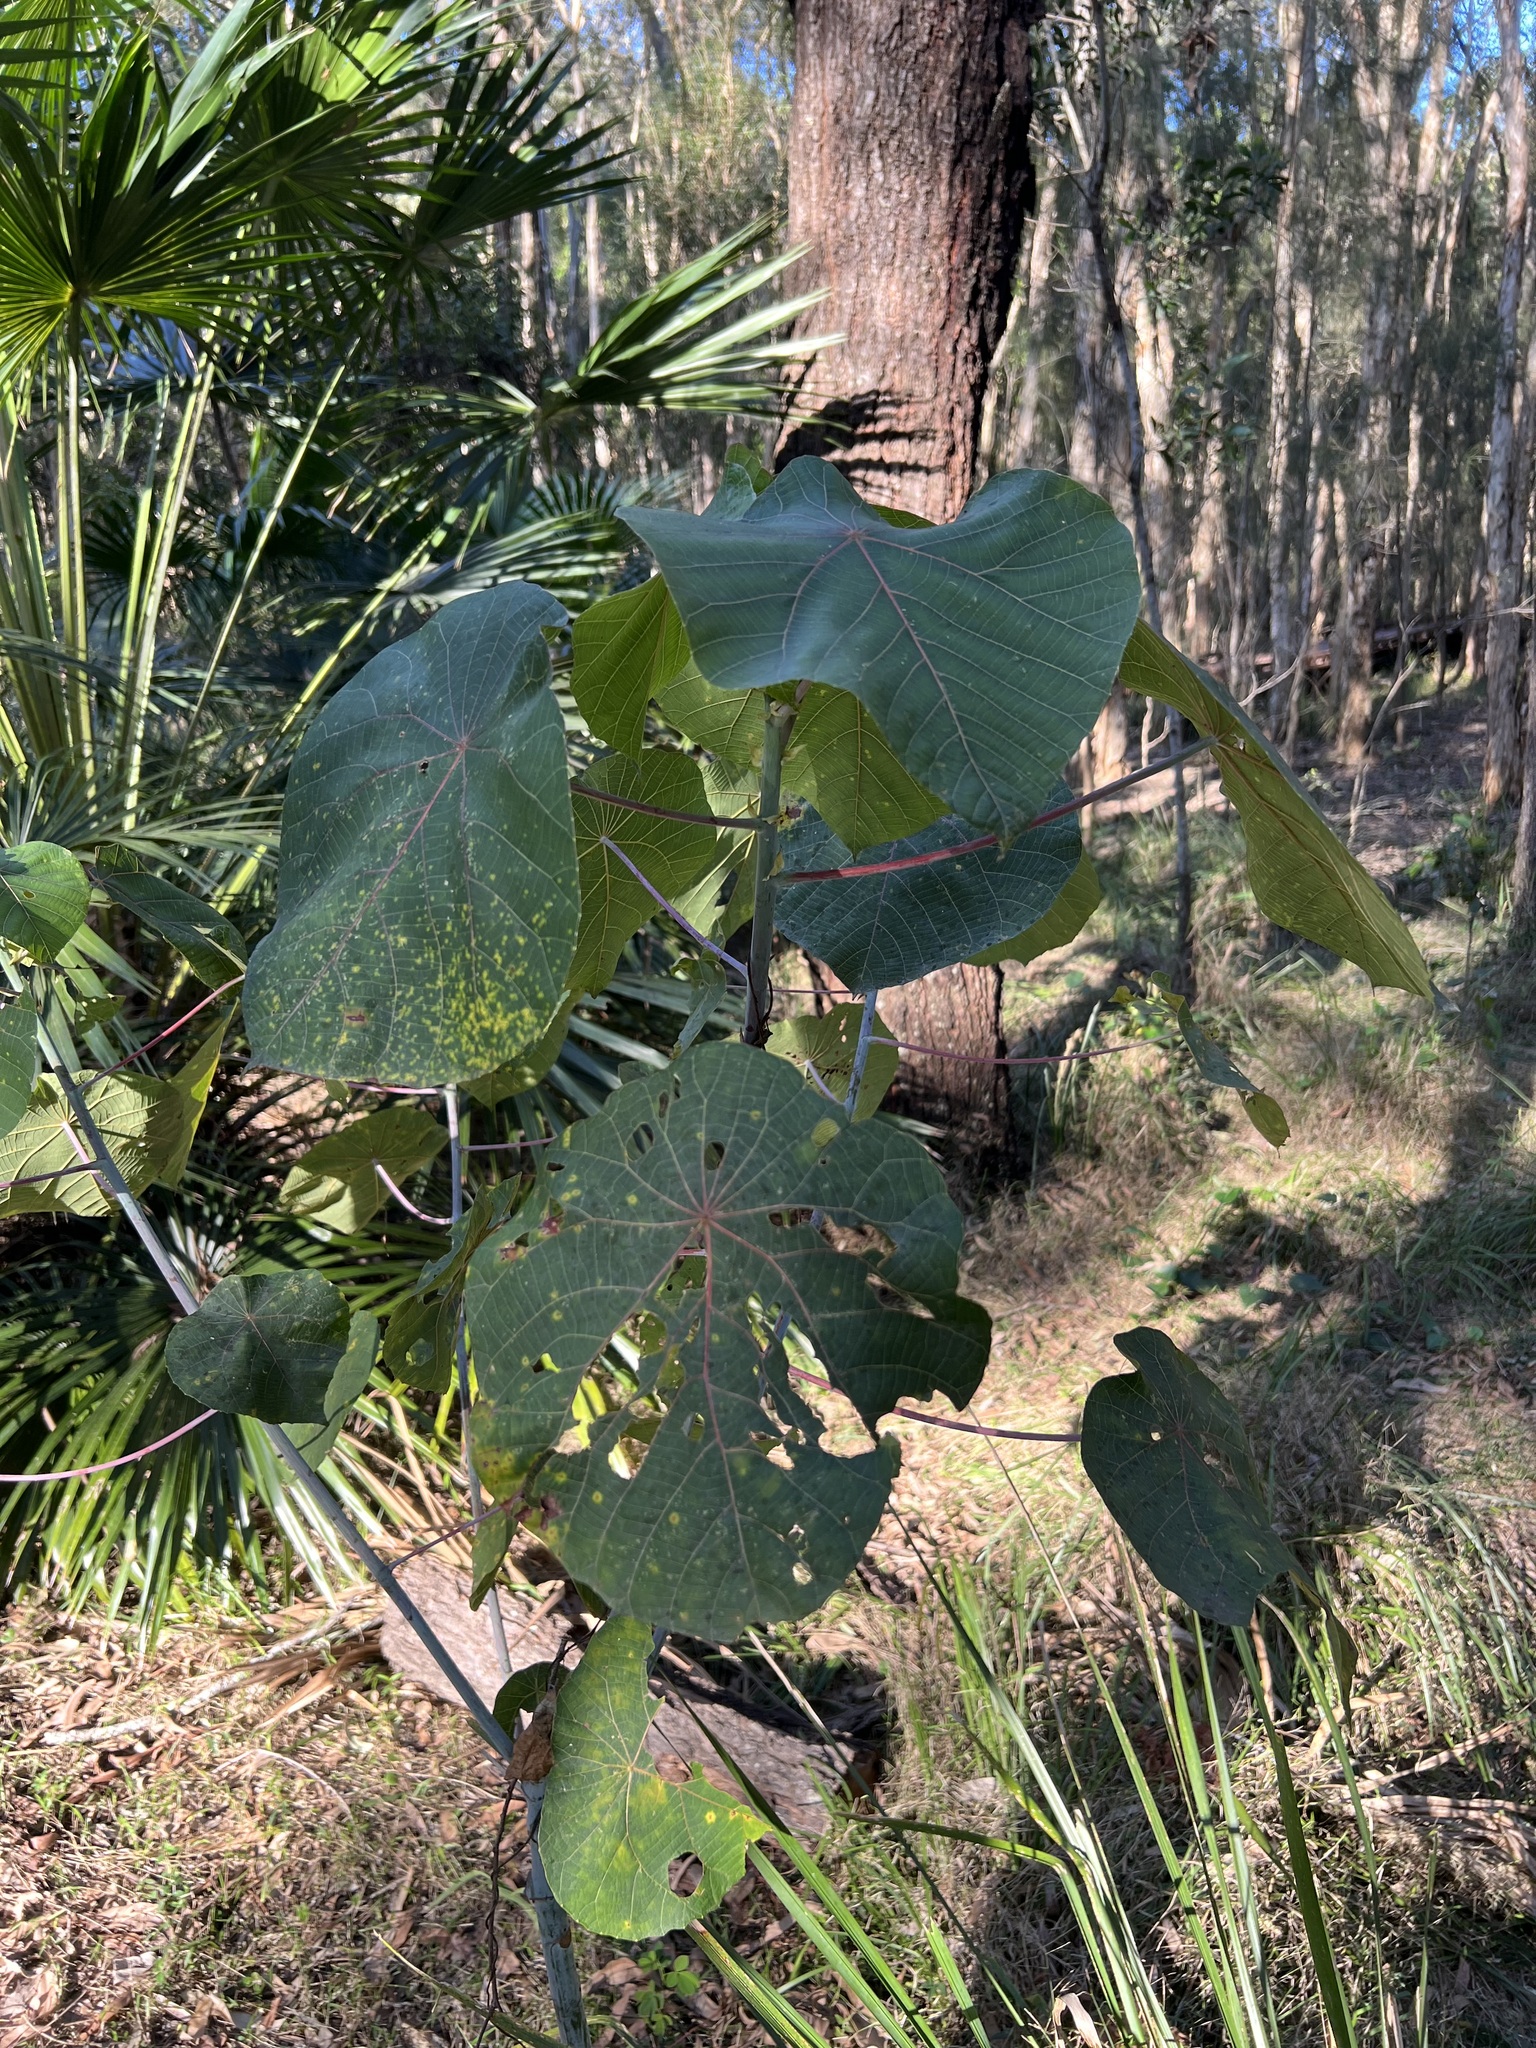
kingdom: Plantae
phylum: Tracheophyta
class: Magnoliopsida
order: Malpighiales
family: Euphorbiaceae
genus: Macaranga
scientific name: Macaranga tanarius
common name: Parasol leaf tree
